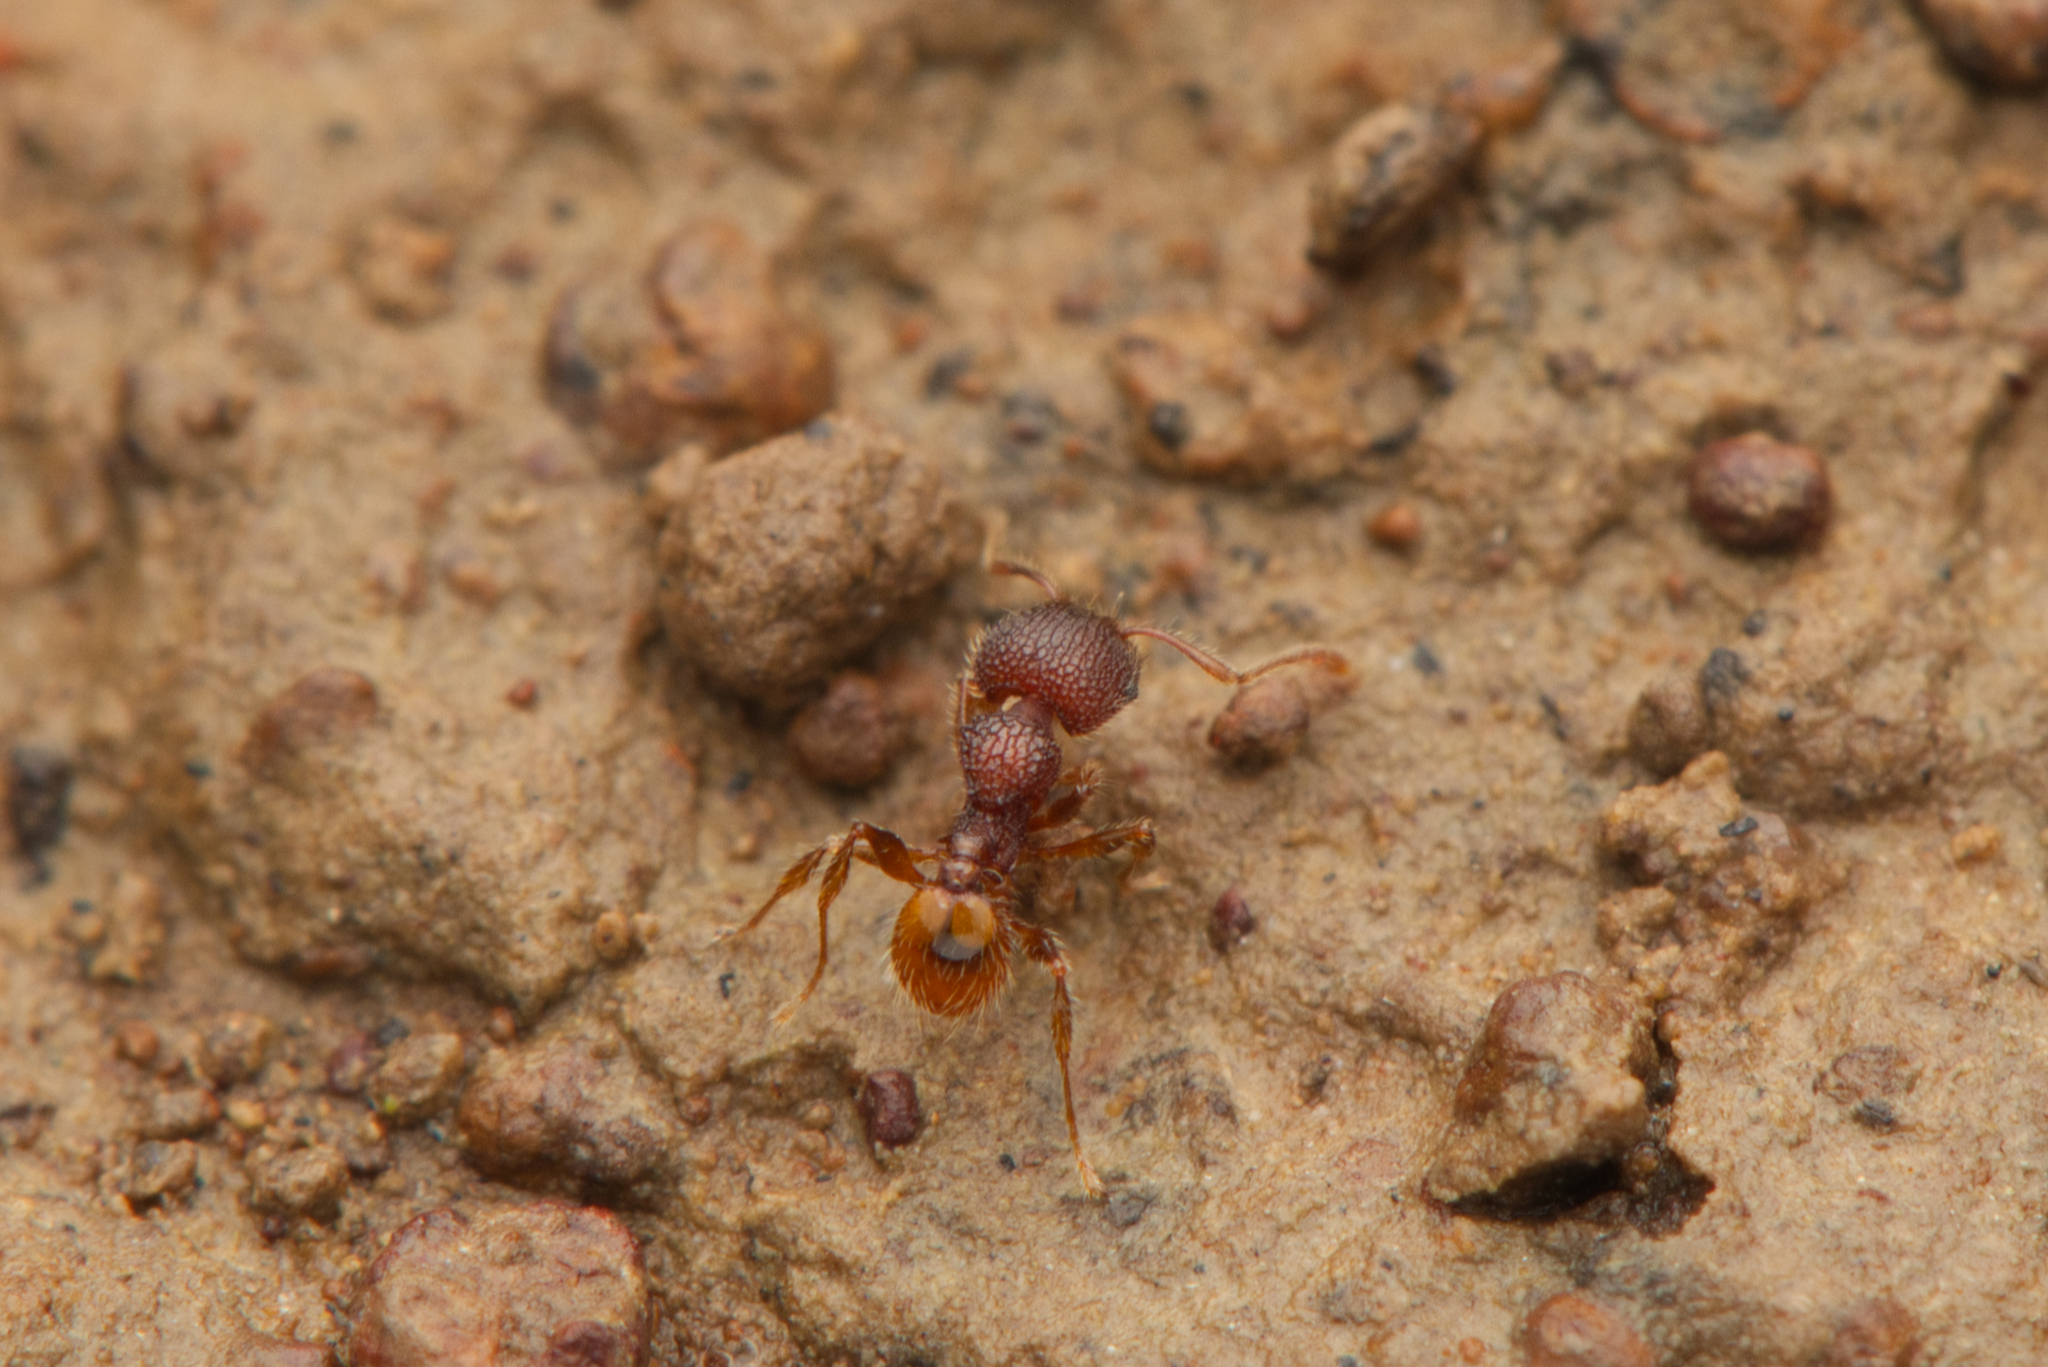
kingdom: Animalia
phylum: Arthropoda
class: Insecta
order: Hymenoptera
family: Formicidae
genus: Pheidole
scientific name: Pheidole longiceps
